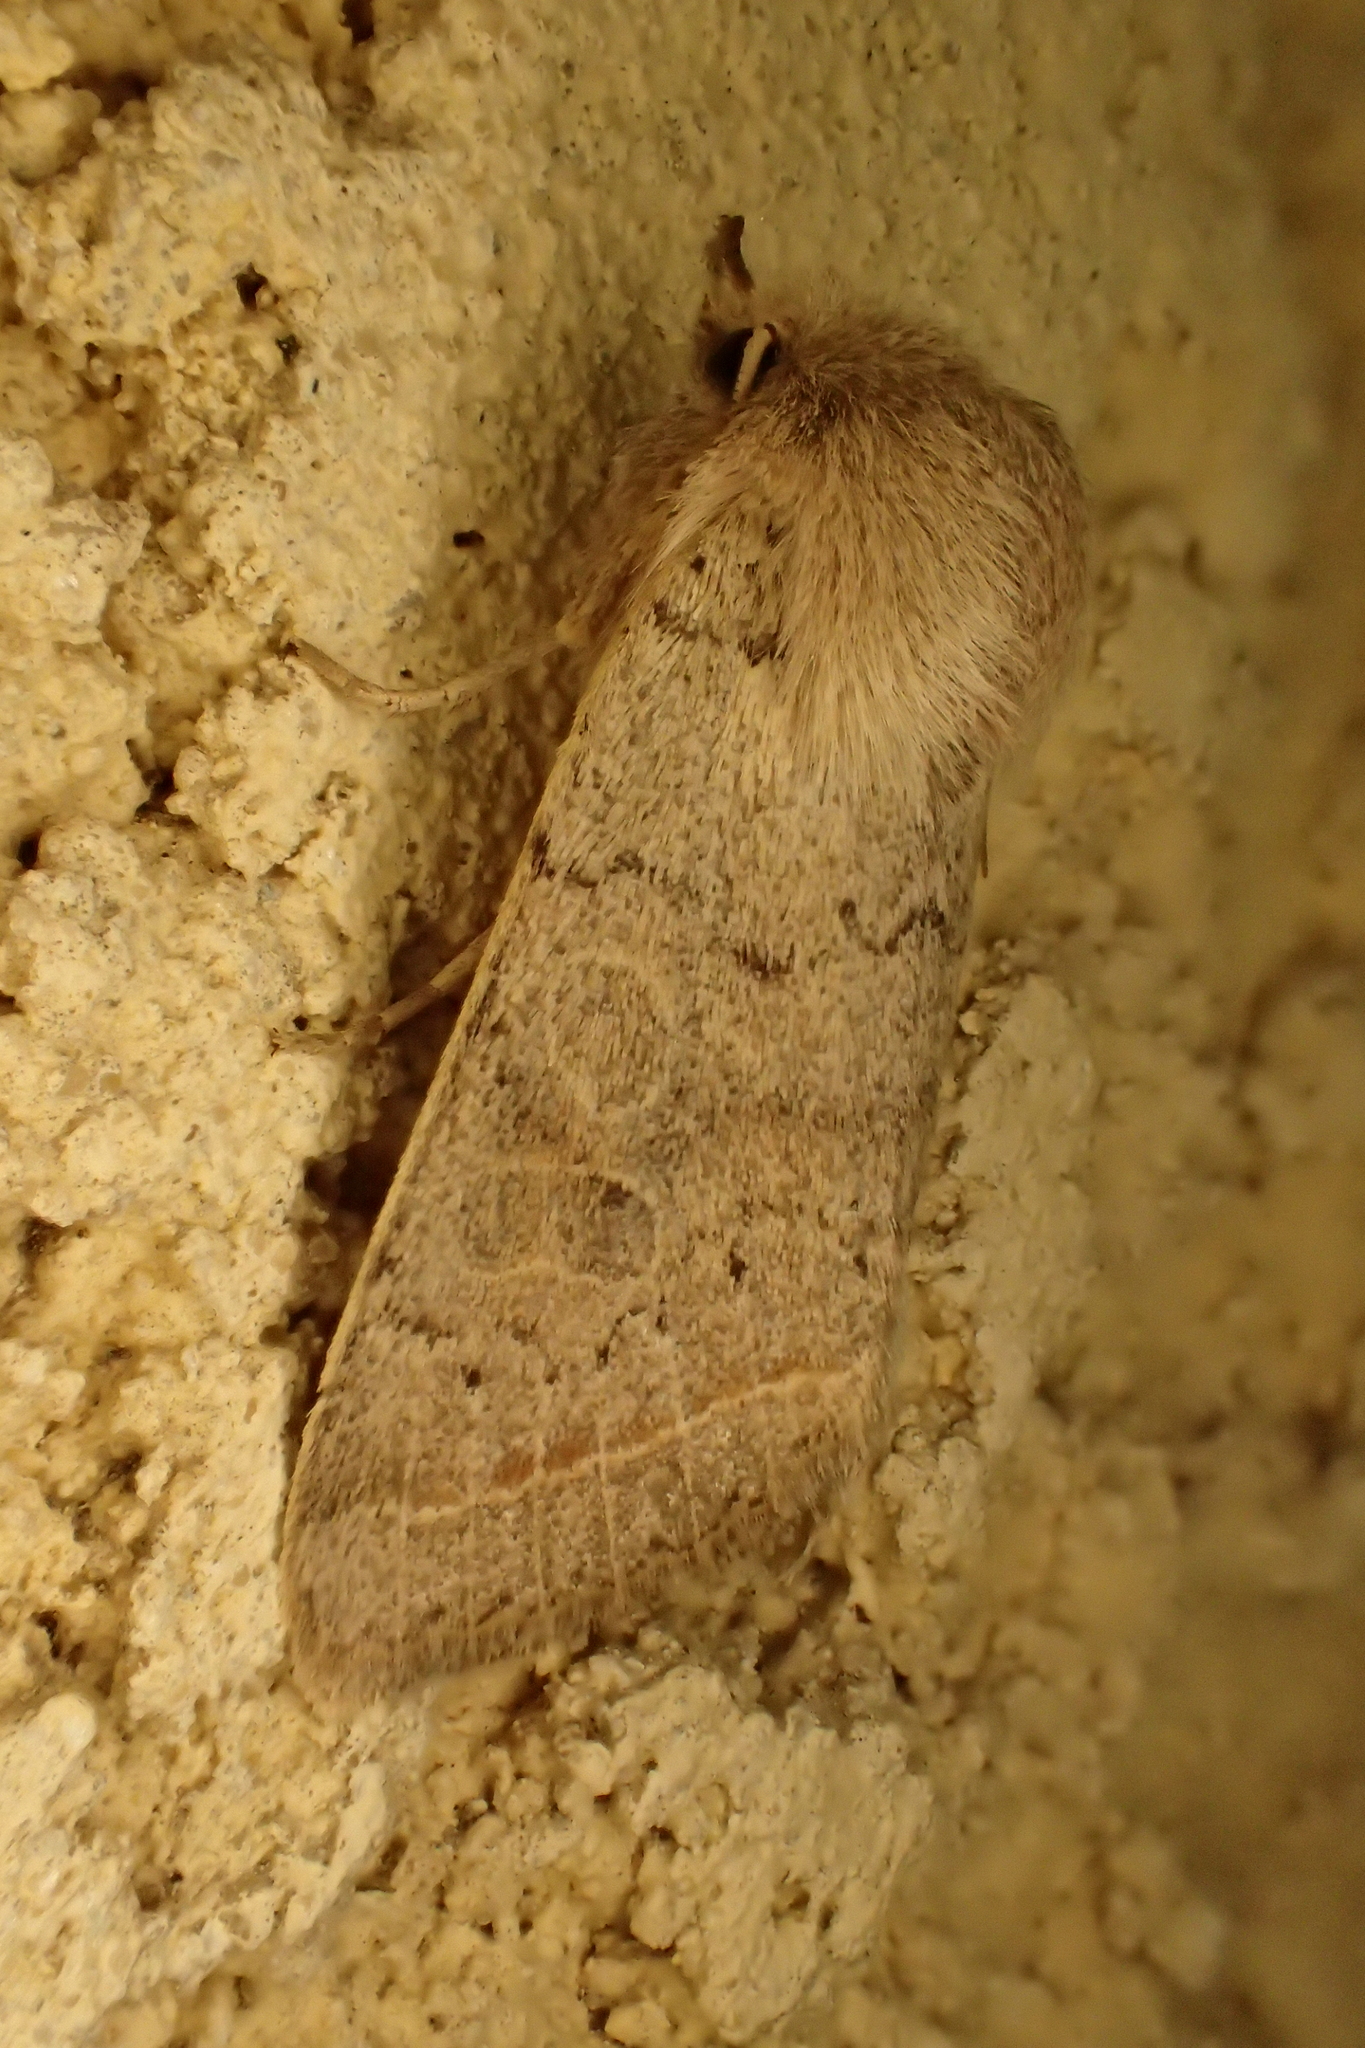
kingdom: Animalia
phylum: Arthropoda
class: Insecta
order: Lepidoptera
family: Noctuidae
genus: Orthosia
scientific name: Orthosia cerasi
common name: Common quaker
